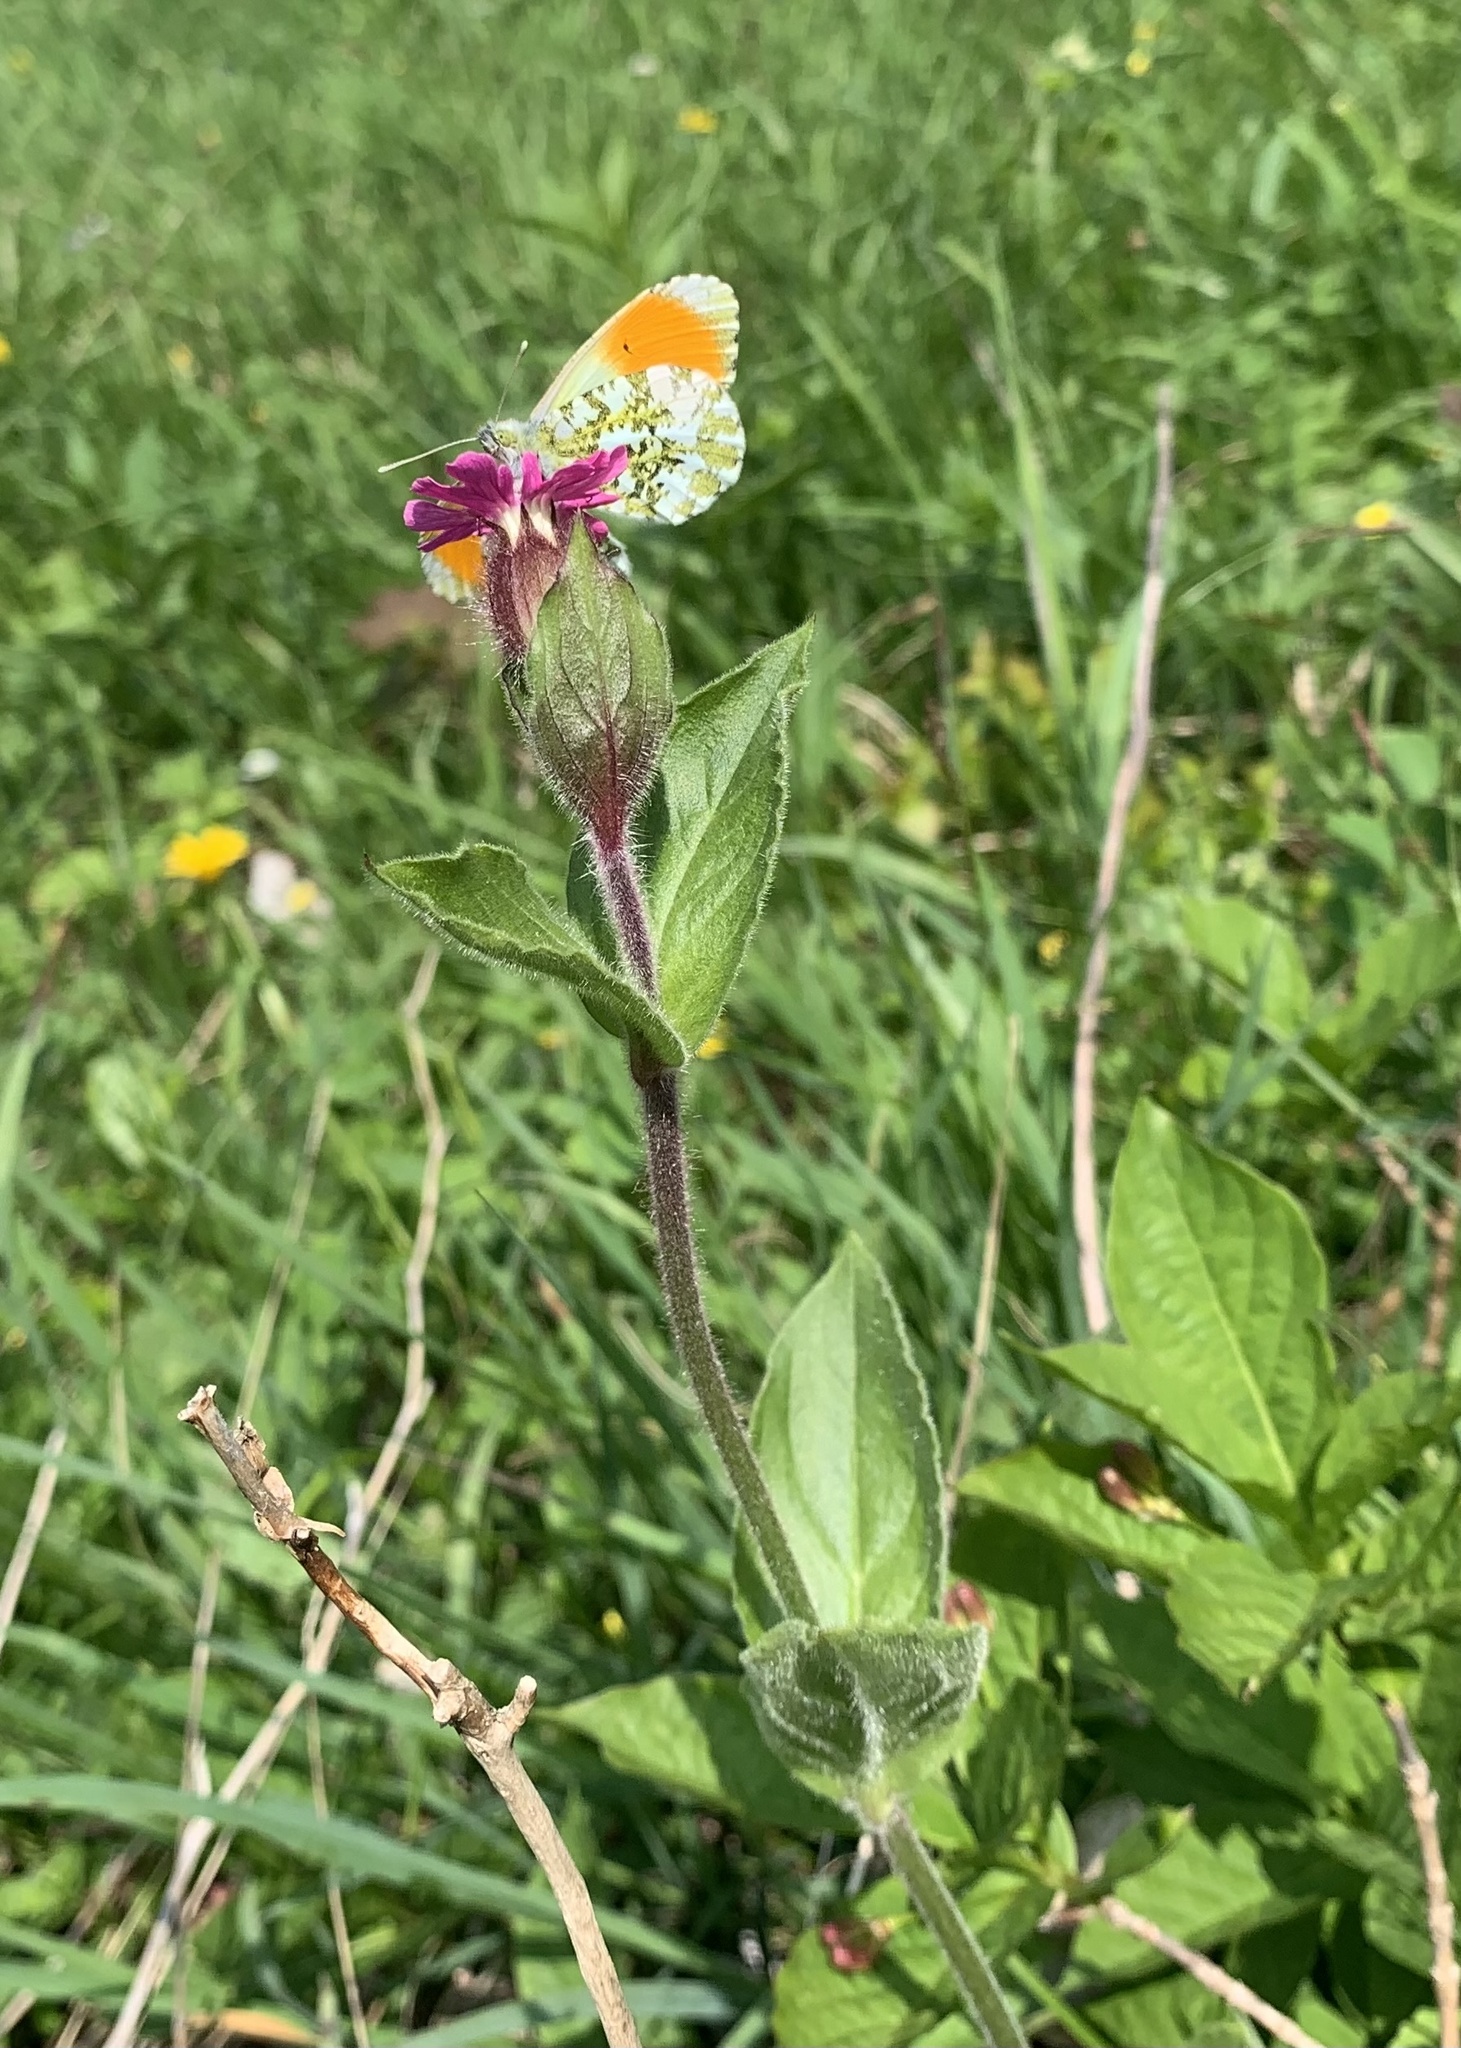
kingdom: Animalia
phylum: Arthropoda
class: Insecta
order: Lepidoptera
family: Pieridae
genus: Anthocharis
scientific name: Anthocharis cardamines
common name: Orange-tip
